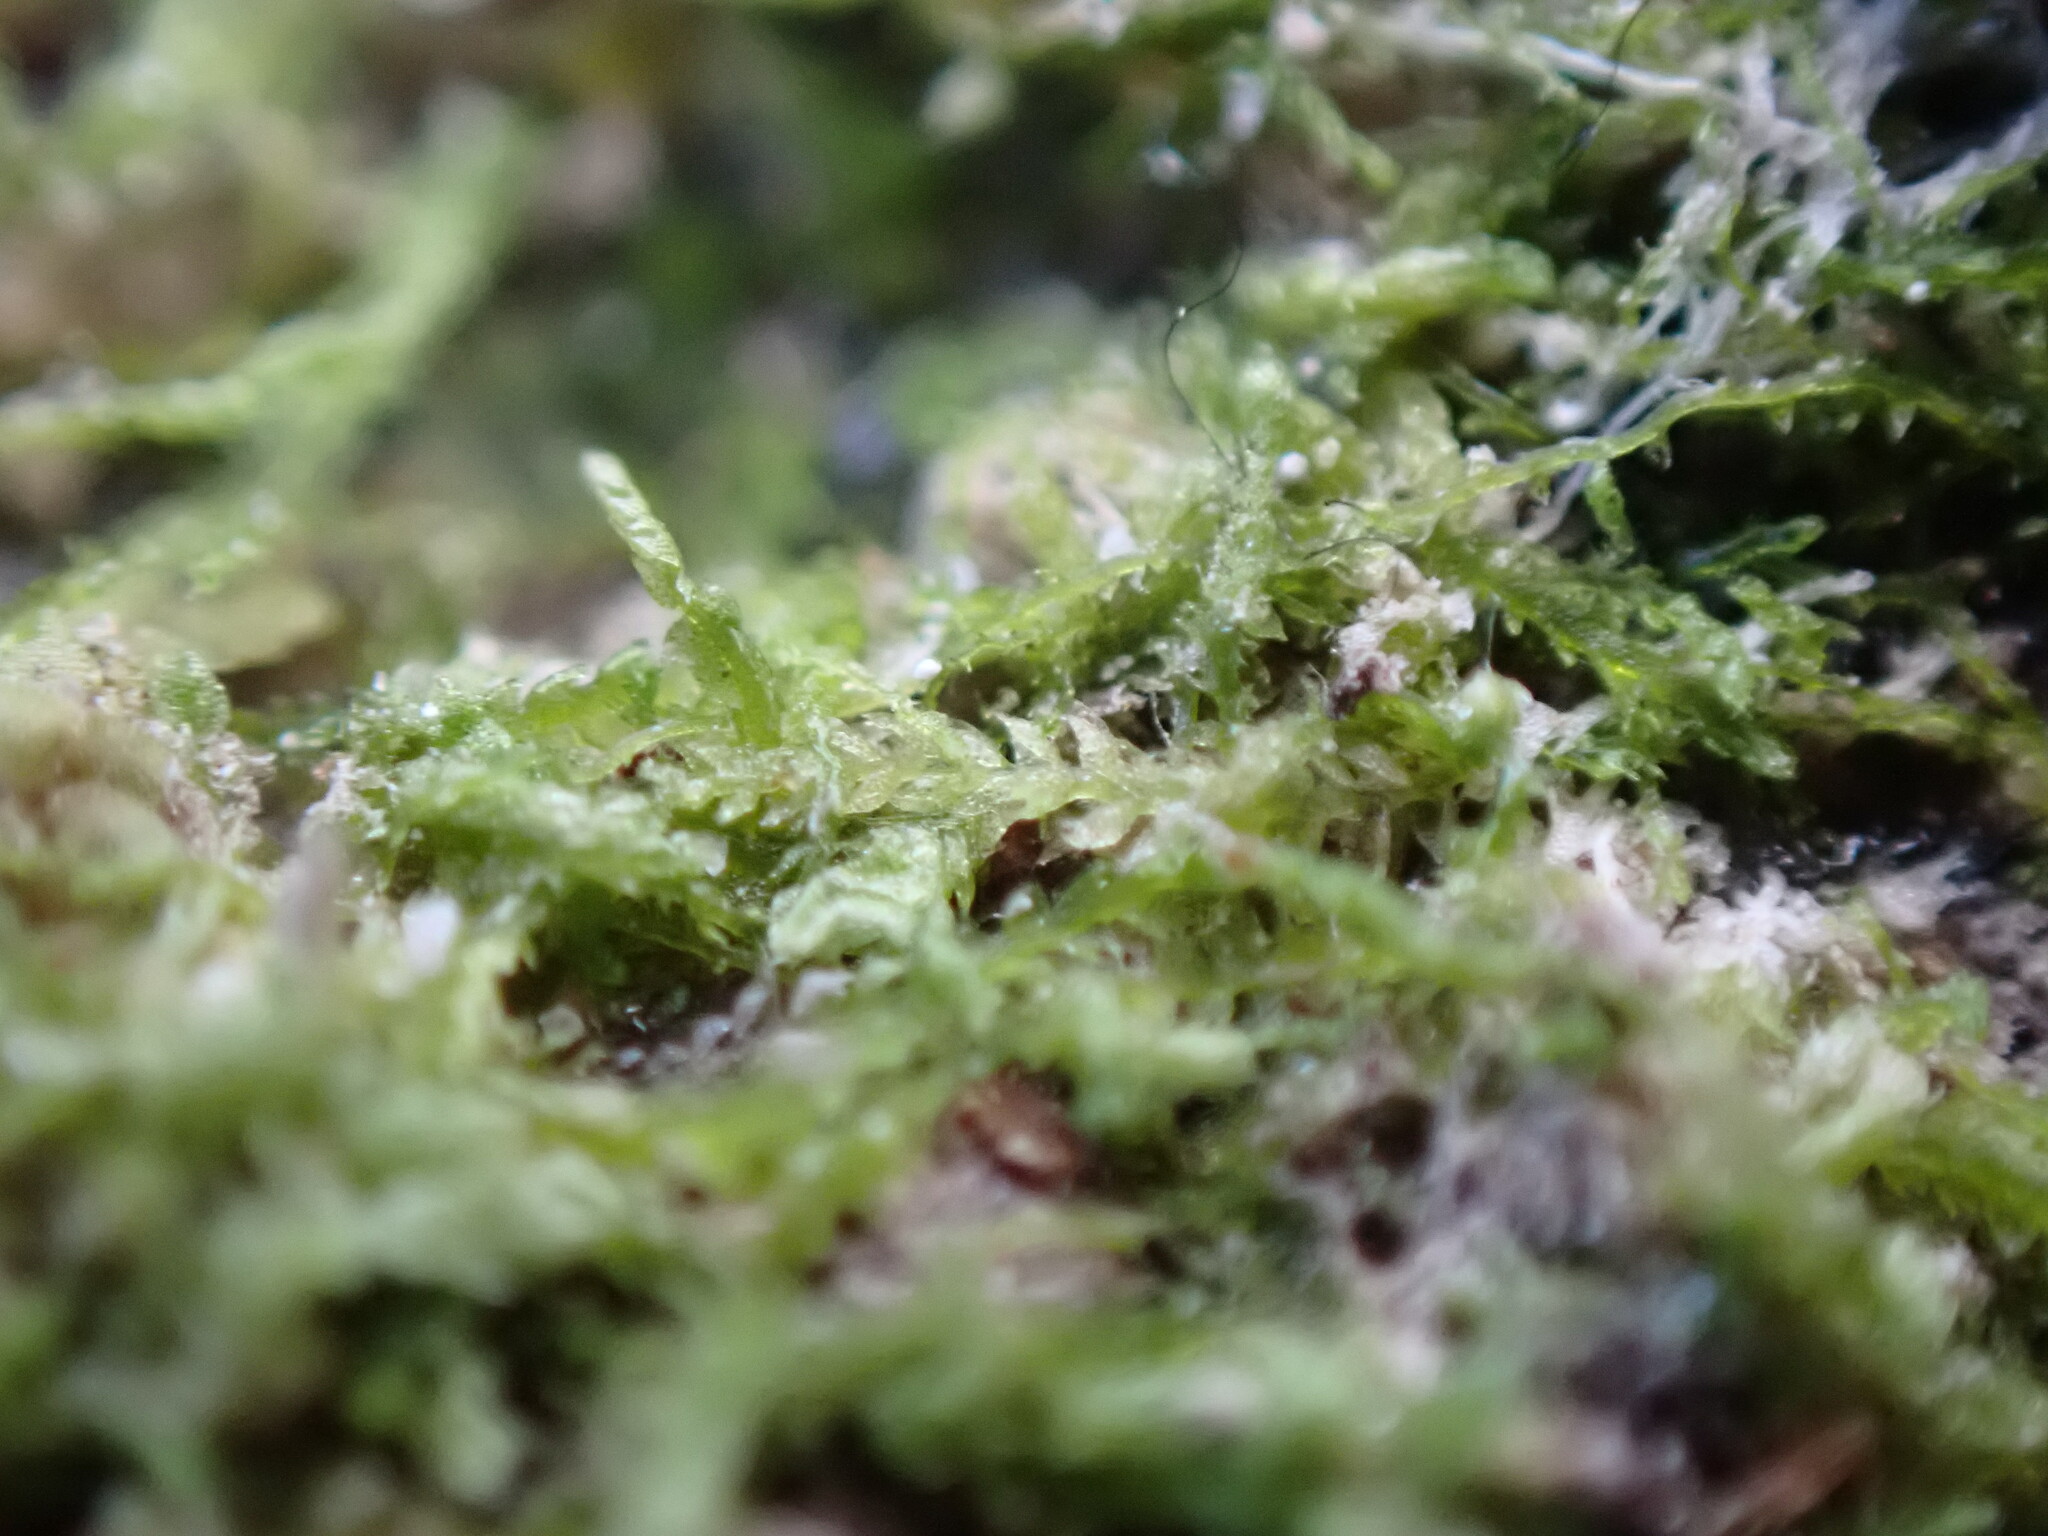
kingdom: Plantae
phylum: Marchantiophyta
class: Jungermanniopsida
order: Jungermanniales
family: Cephaloziaceae
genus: Cephalozia
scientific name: Cephalozia bicuspidata
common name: Two-horned pincerwort
